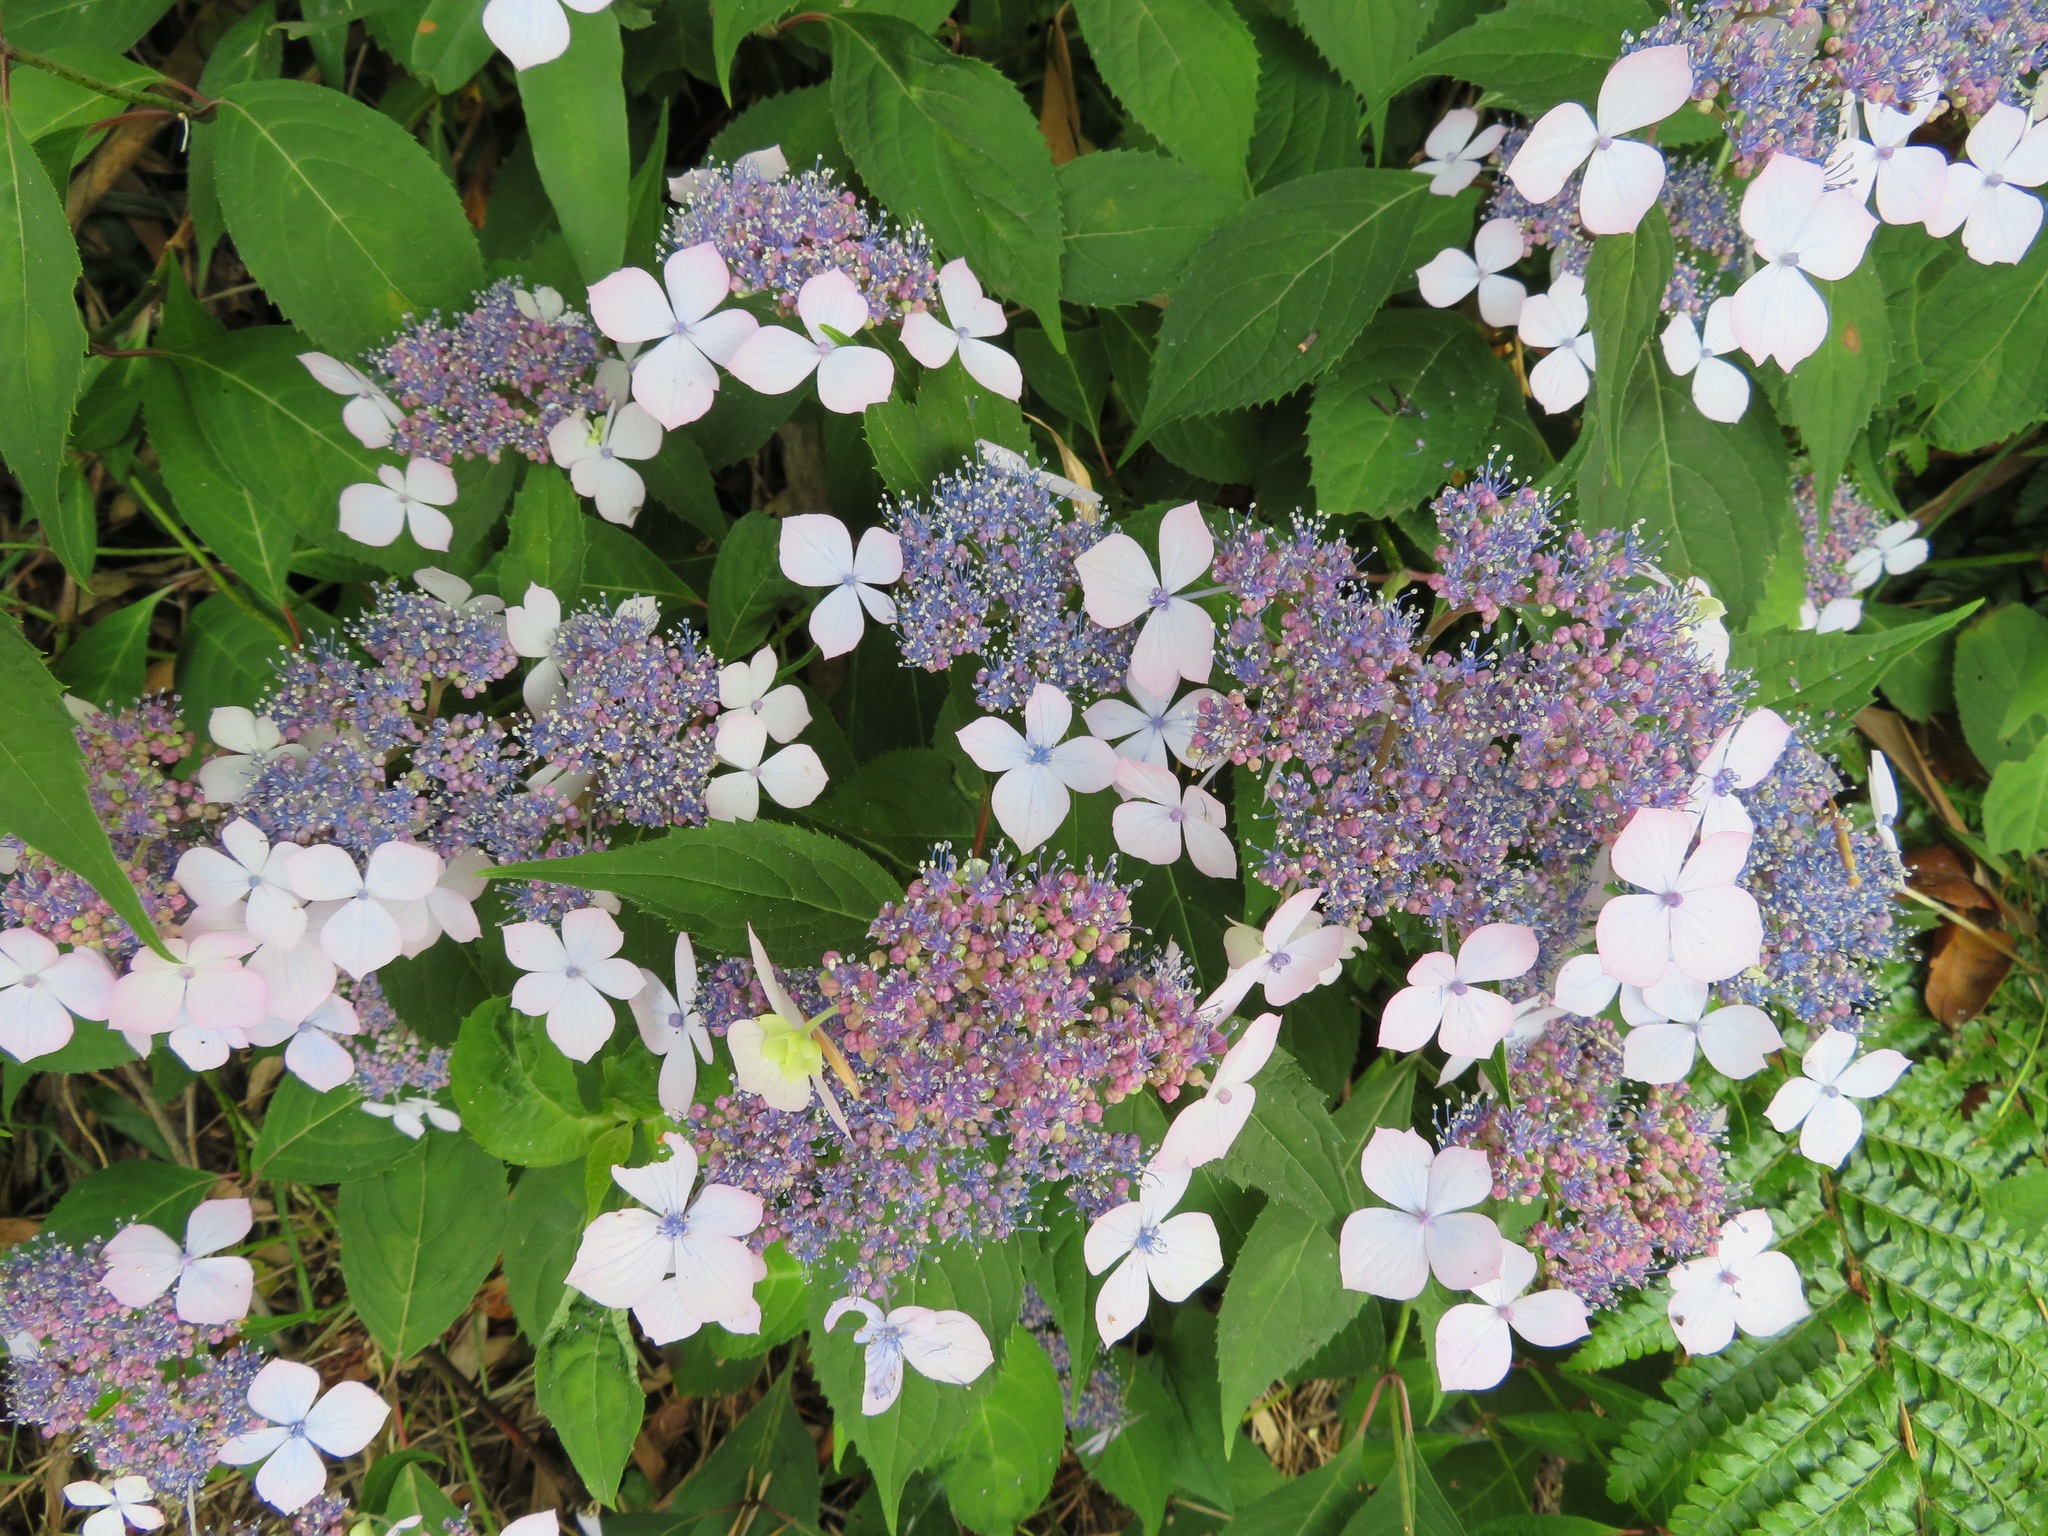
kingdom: Plantae
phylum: Tracheophyta
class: Magnoliopsida
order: Cornales
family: Hydrangeaceae
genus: Hydrangea
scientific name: Hydrangea serrata
